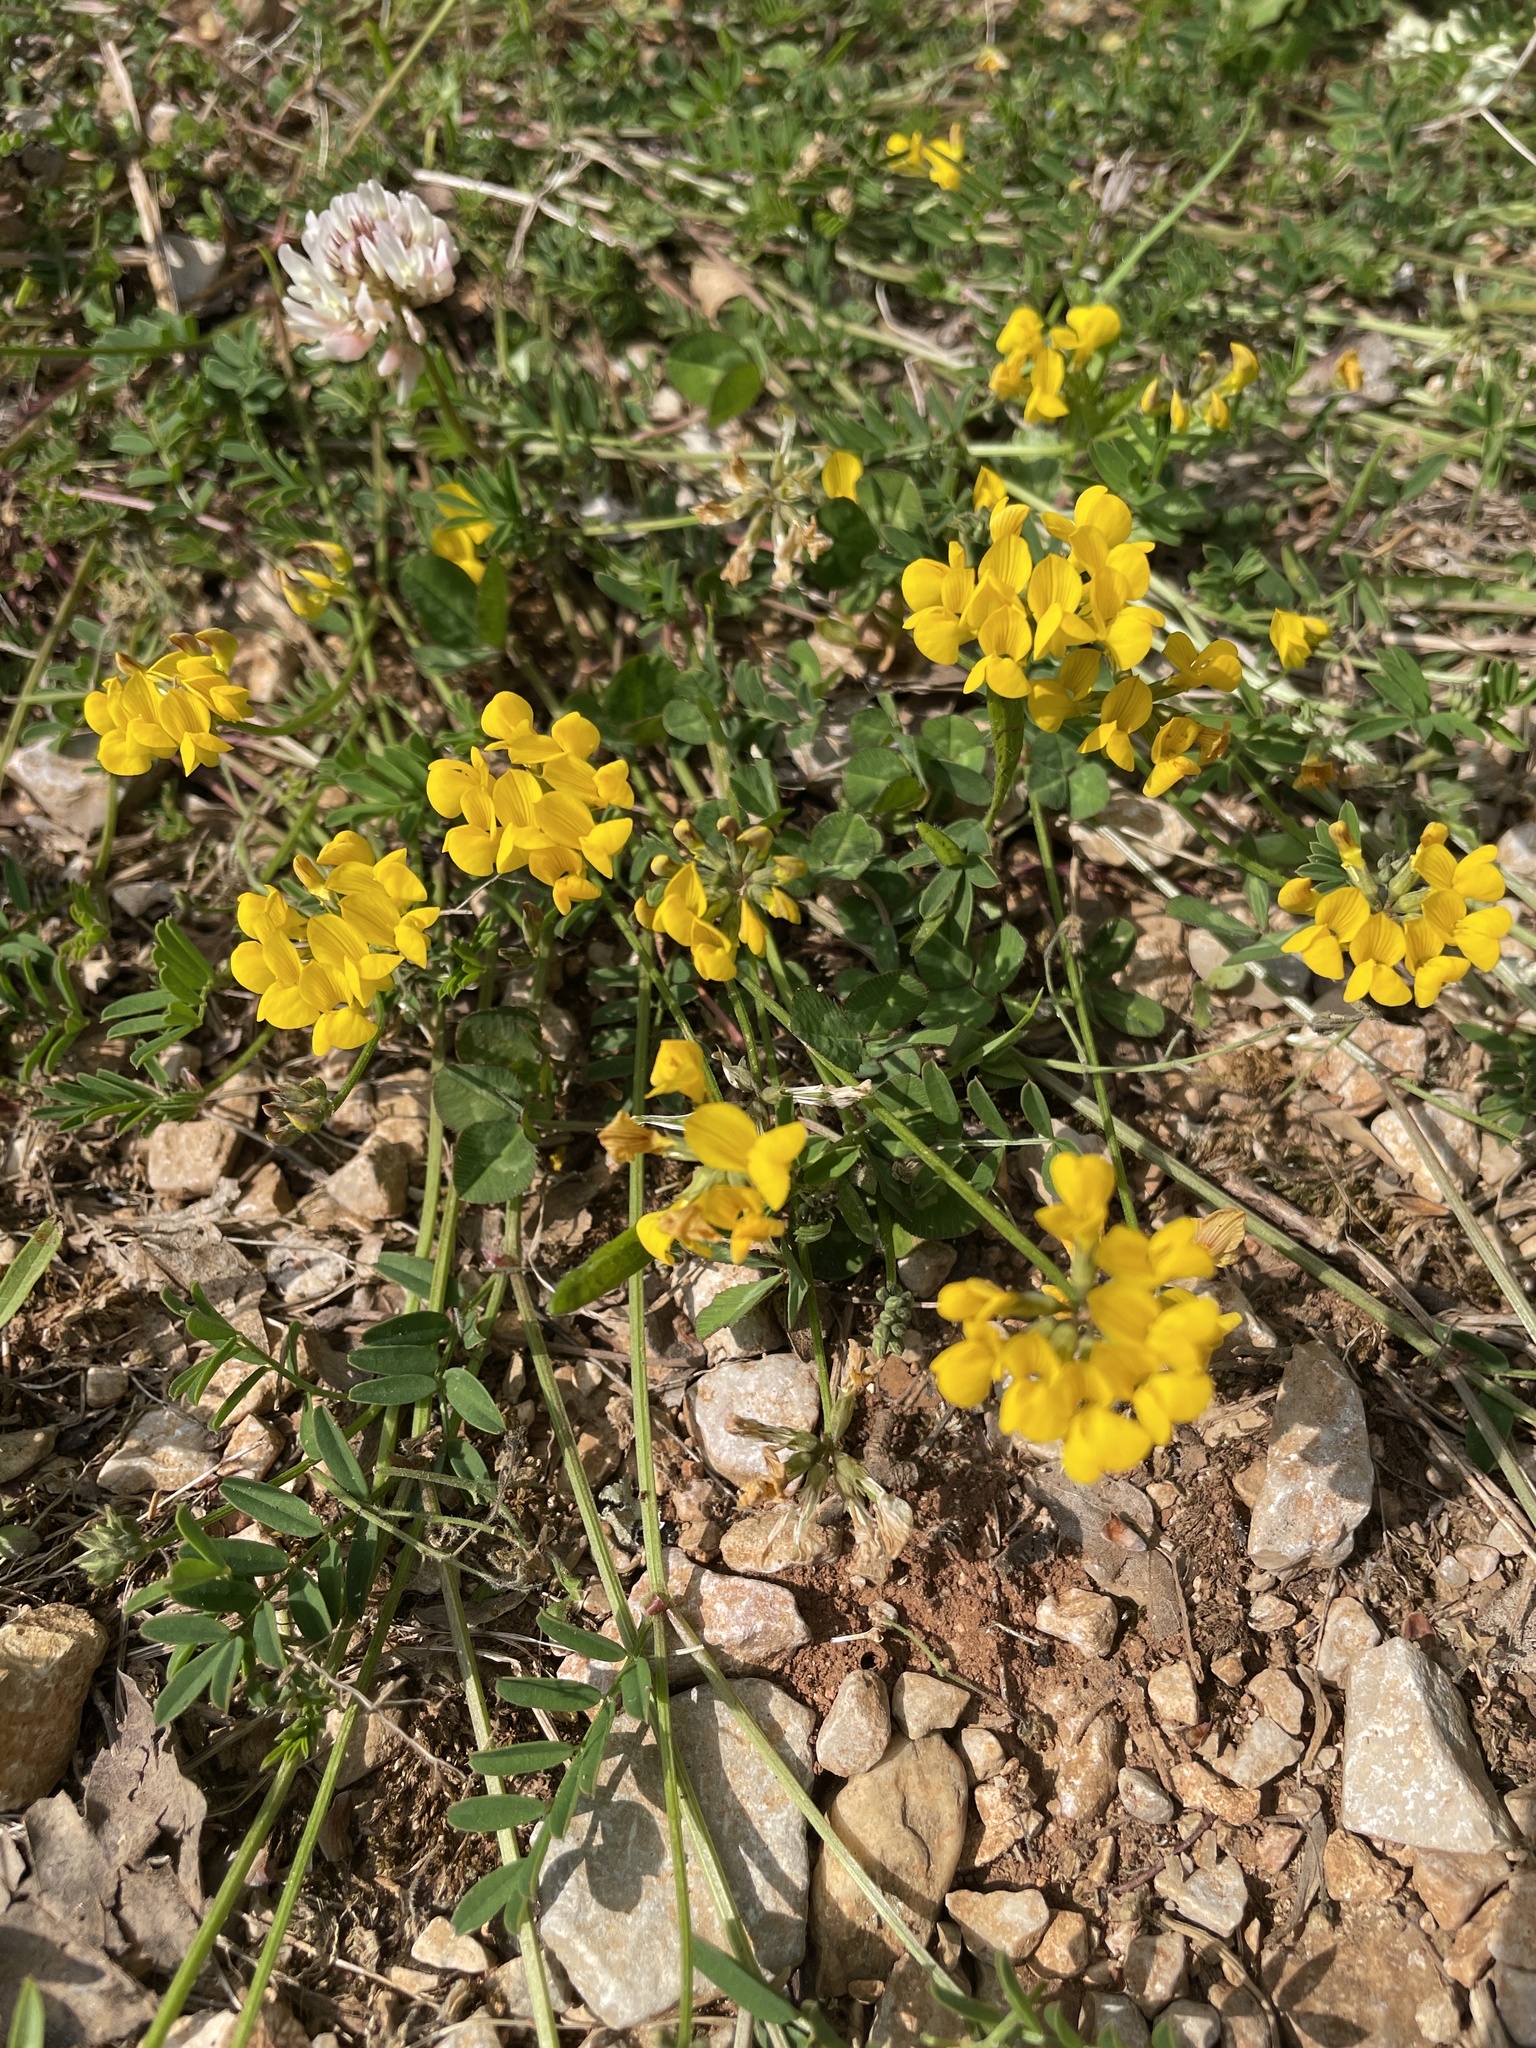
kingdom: Plantae
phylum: Tracheophyta
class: Magnoliopsida
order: Fabales
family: Fabaceae
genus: Hippocrepis
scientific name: Hippocrepis comosa
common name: Horseshoe vetch
